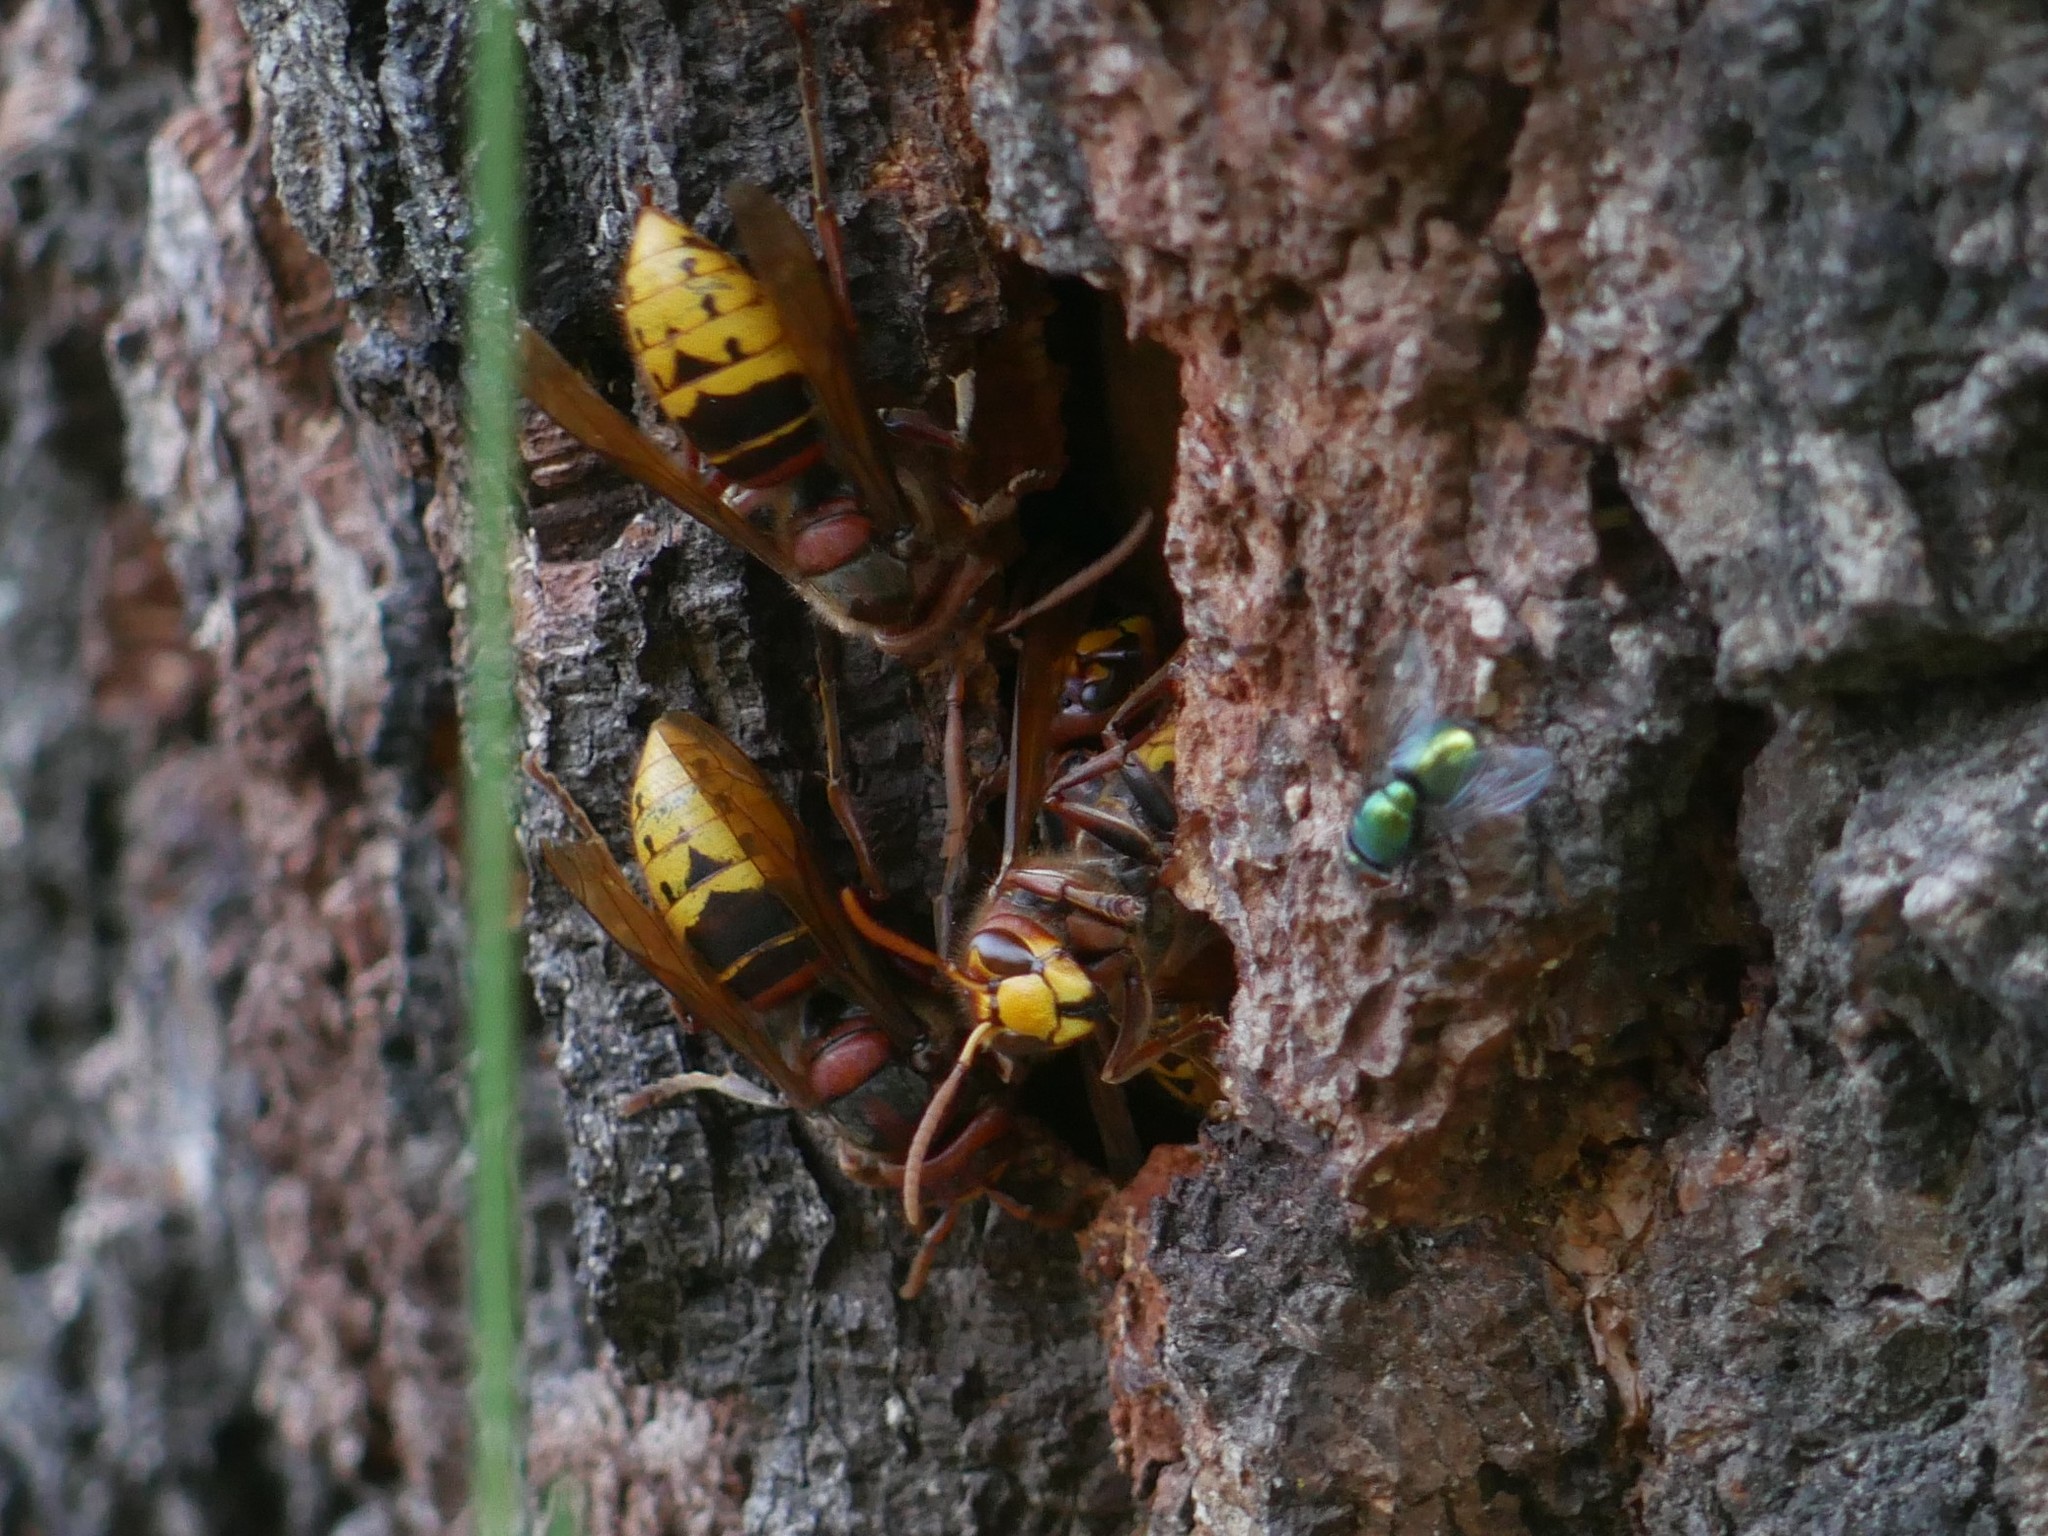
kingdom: Animalia
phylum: Arthropoda
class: Insecta
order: Hymenoptera
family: Vespidae
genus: Vespa
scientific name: Vespa crabro
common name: Hornet
